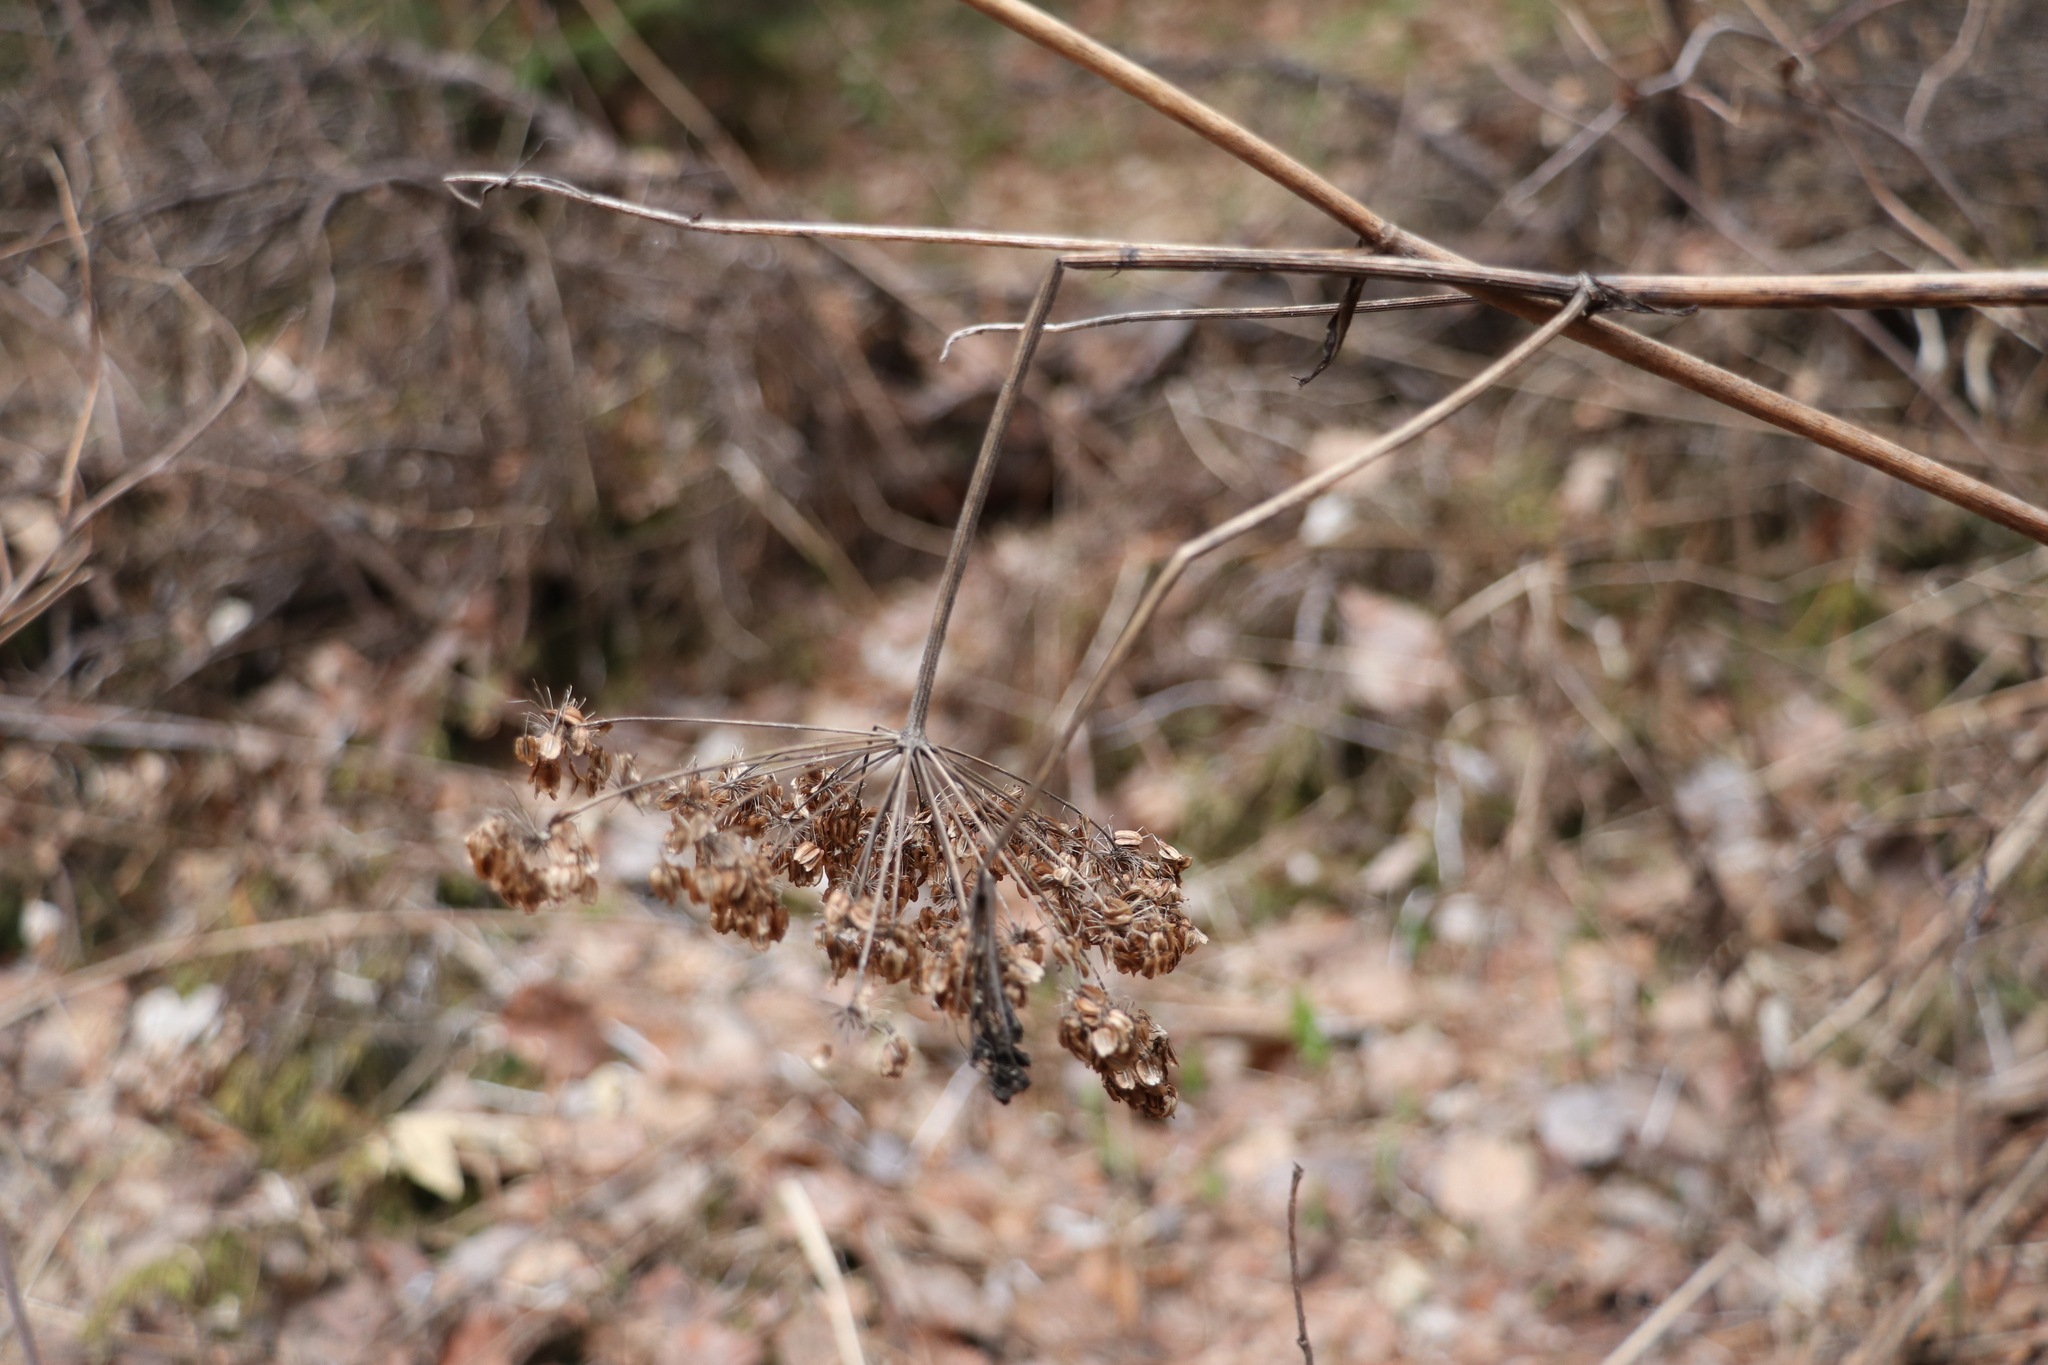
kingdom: Plantae
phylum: Tracheophyta
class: Magnoliopsida
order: Apiales
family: Apiaceae
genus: Anthriscus
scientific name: Anthriscus sylvestris
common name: Cow parsley
